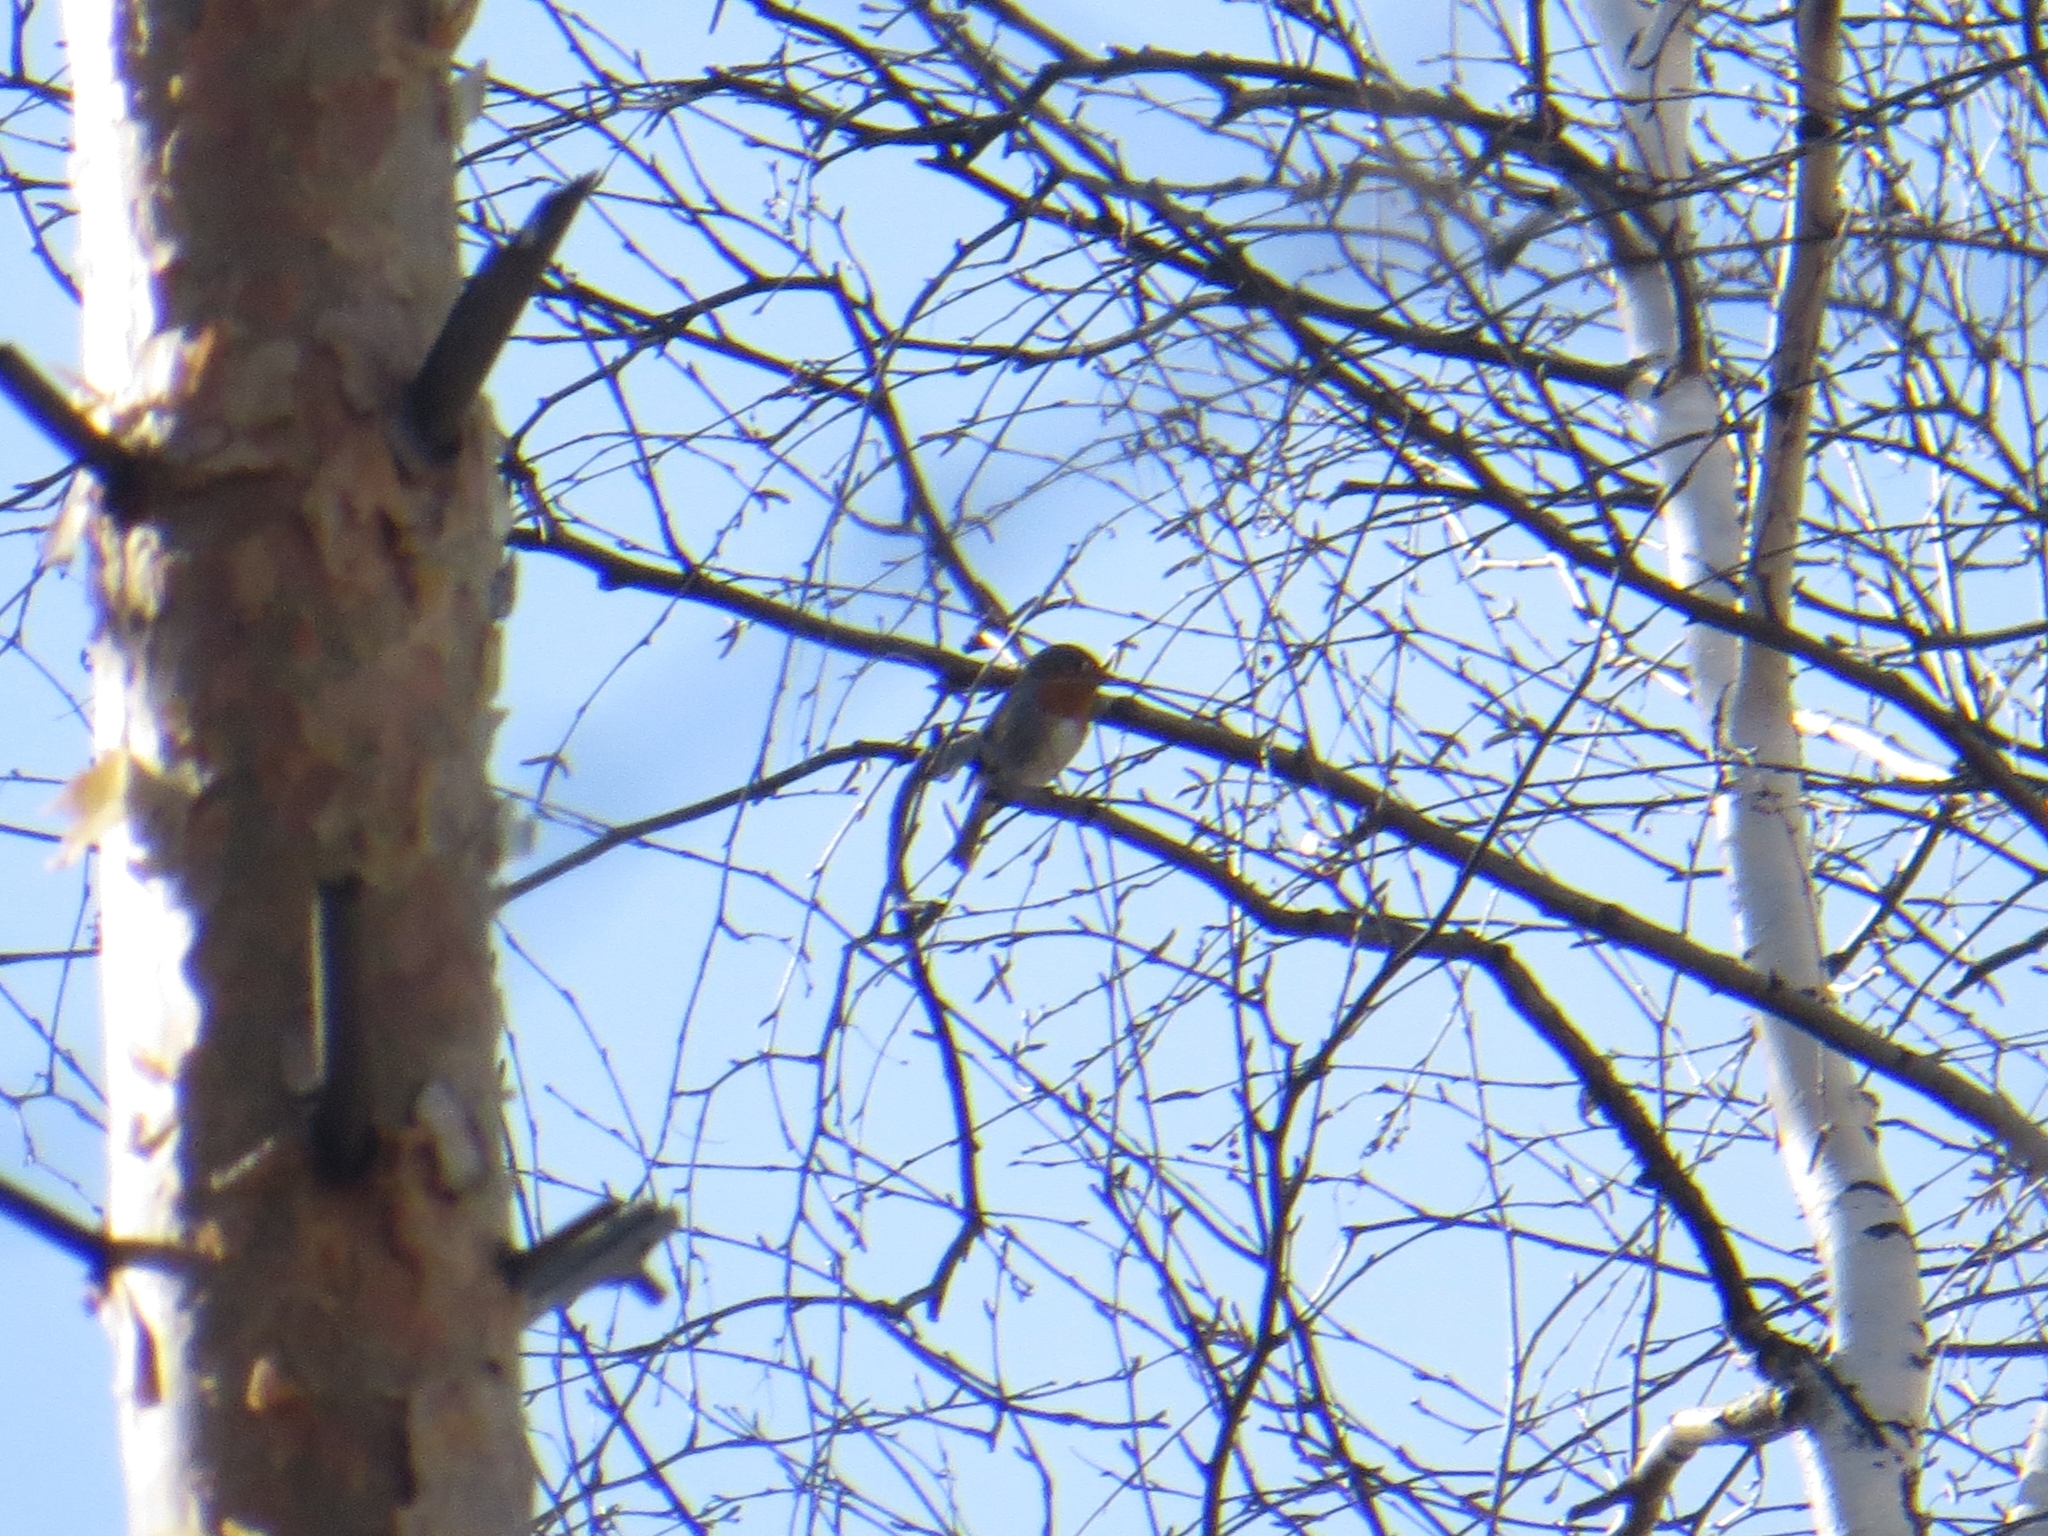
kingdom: Animalia
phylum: Chordata
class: Aves
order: Passeriformes
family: Muscicapidae
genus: Erithacus
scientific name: Erithacus rubecula
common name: European robin
